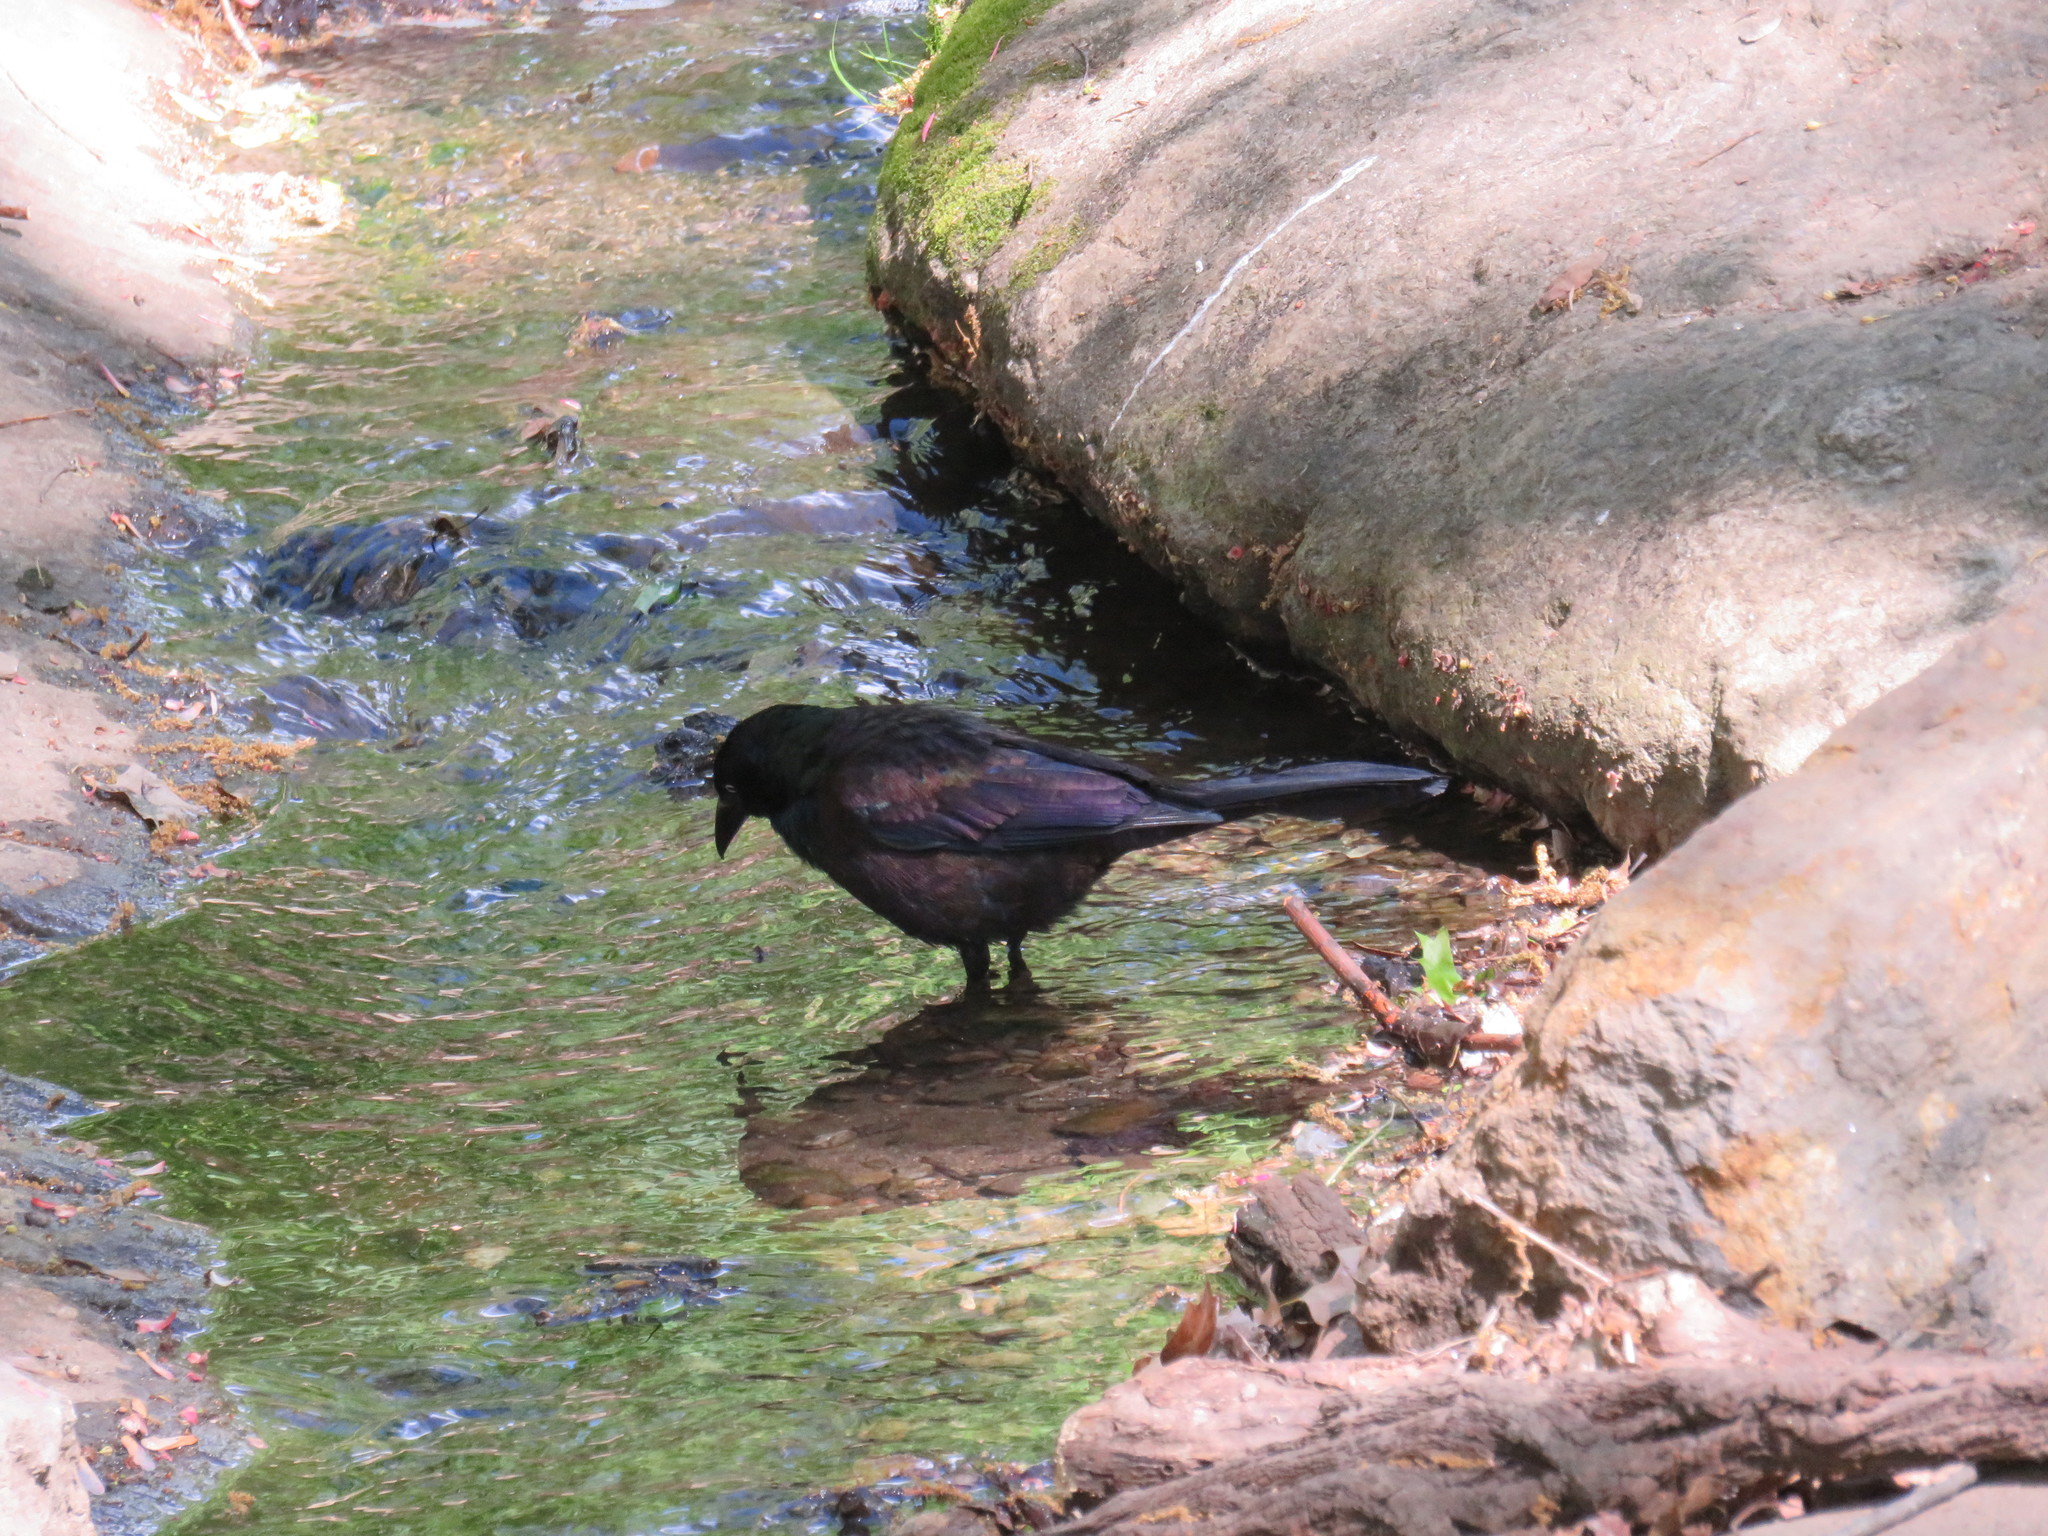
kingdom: Animalia
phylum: Chordata
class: Aves
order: Passeriformes
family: Icteridae
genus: Quiscalus
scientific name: Quiscalus quiscula
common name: Common grackle
